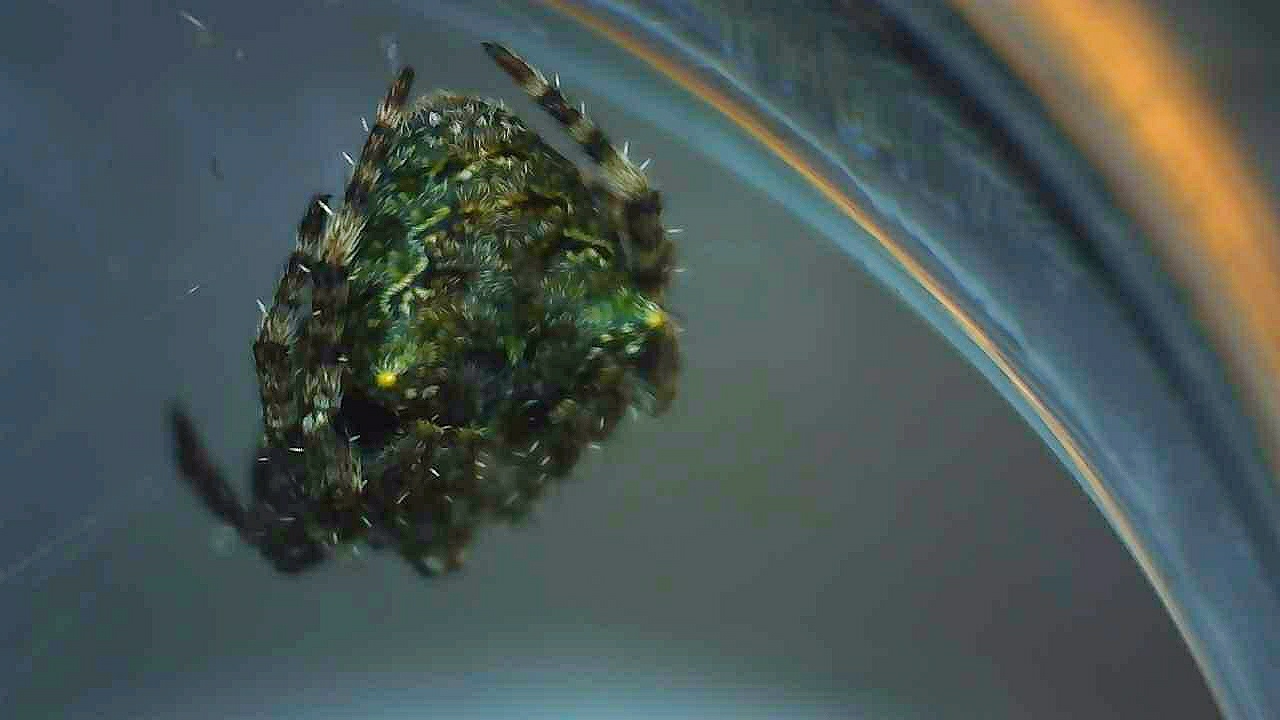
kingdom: Animalia
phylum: Arthropoda
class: Arachnida
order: Araneae
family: Araneidae
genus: Gibbaranea
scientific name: Gibbaranea gibbosa
